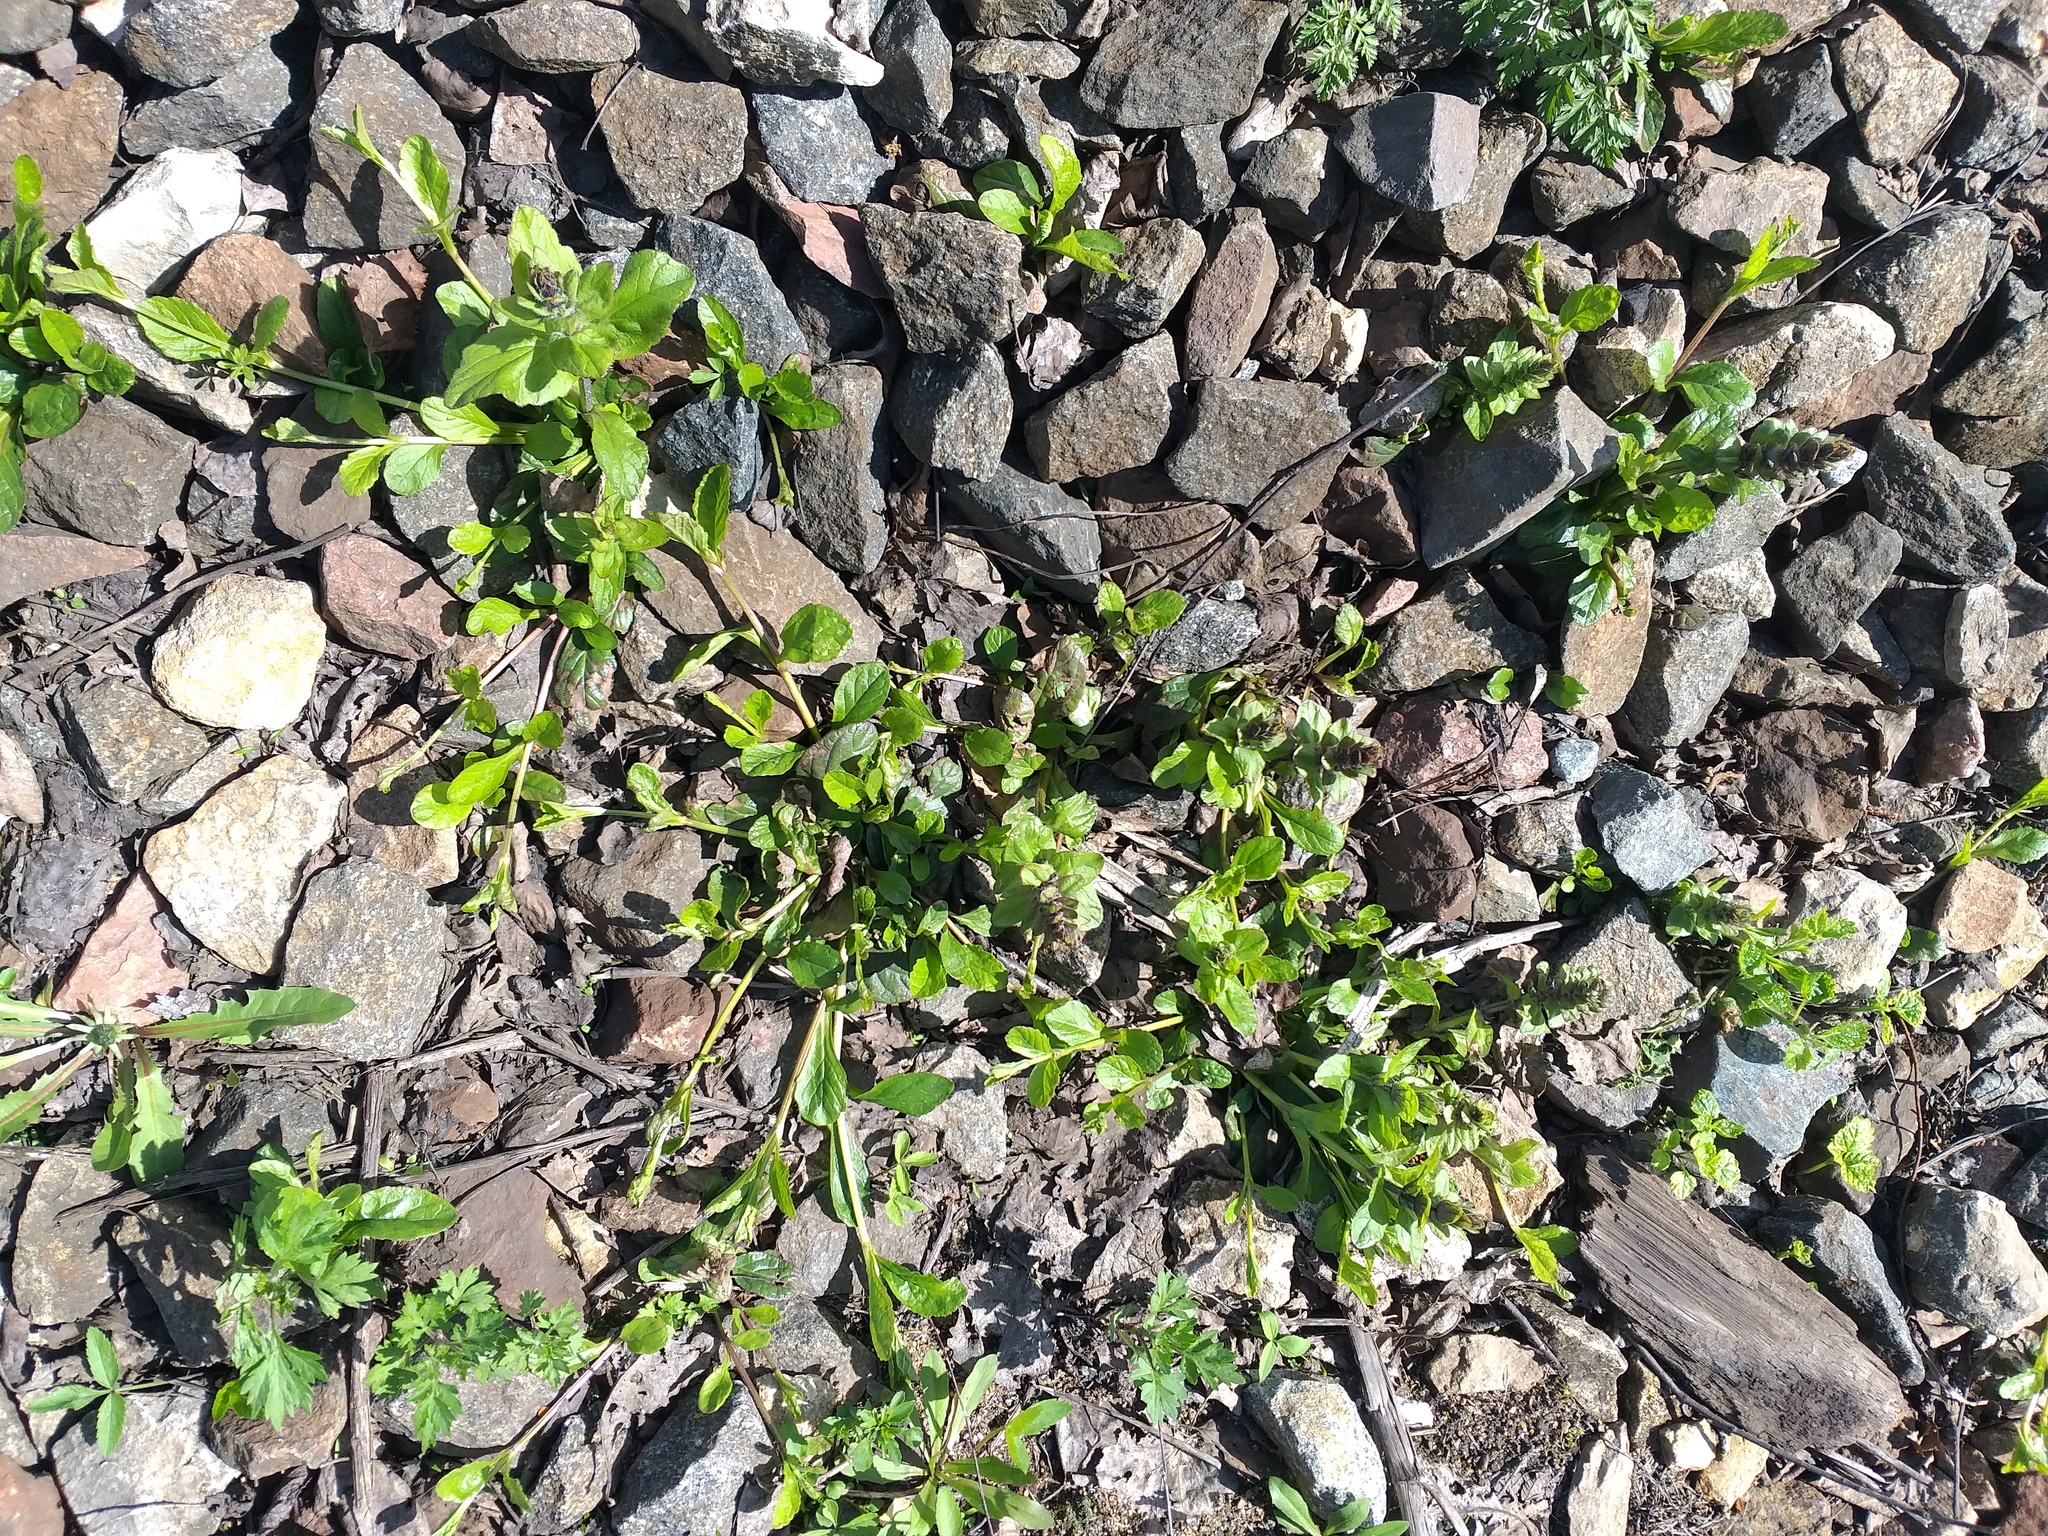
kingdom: Plantae
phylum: Tracheophyta
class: Magnoliopsida
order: Lamiales
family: Lamiaceae
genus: Ajuga
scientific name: Ajuga reptans
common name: Bugle
